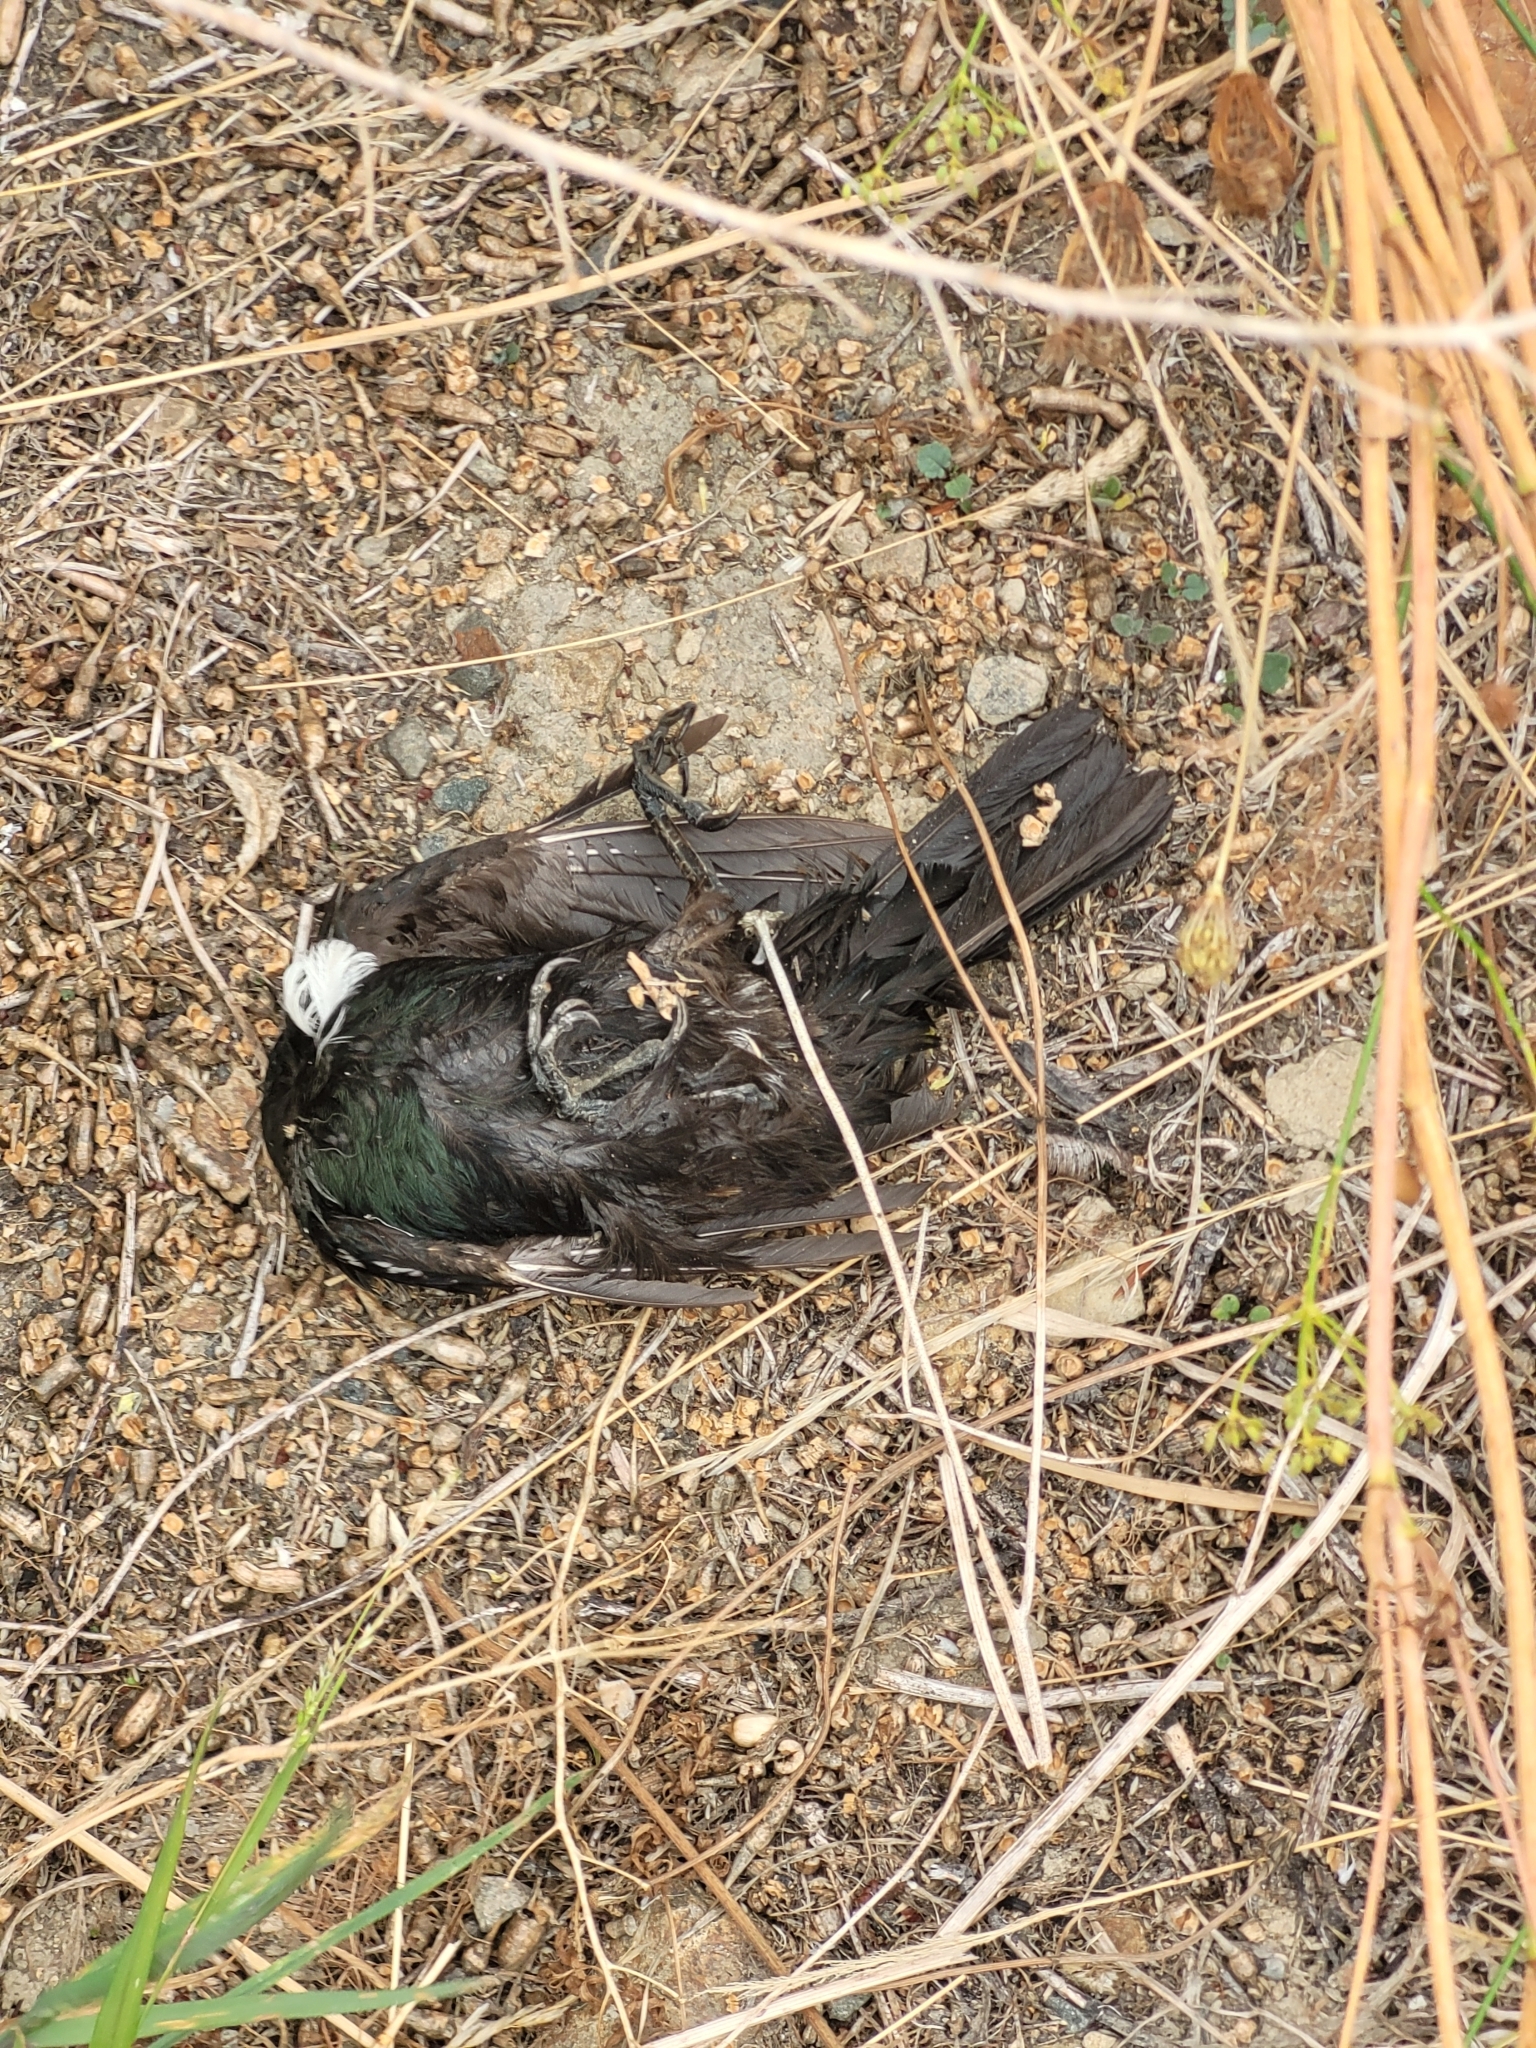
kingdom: Animalia
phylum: Chordata
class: Aves
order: Passeriformes
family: Meliphagidae
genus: Prosthemadera
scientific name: Prosthemadera novaeseelandiae
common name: Tui
